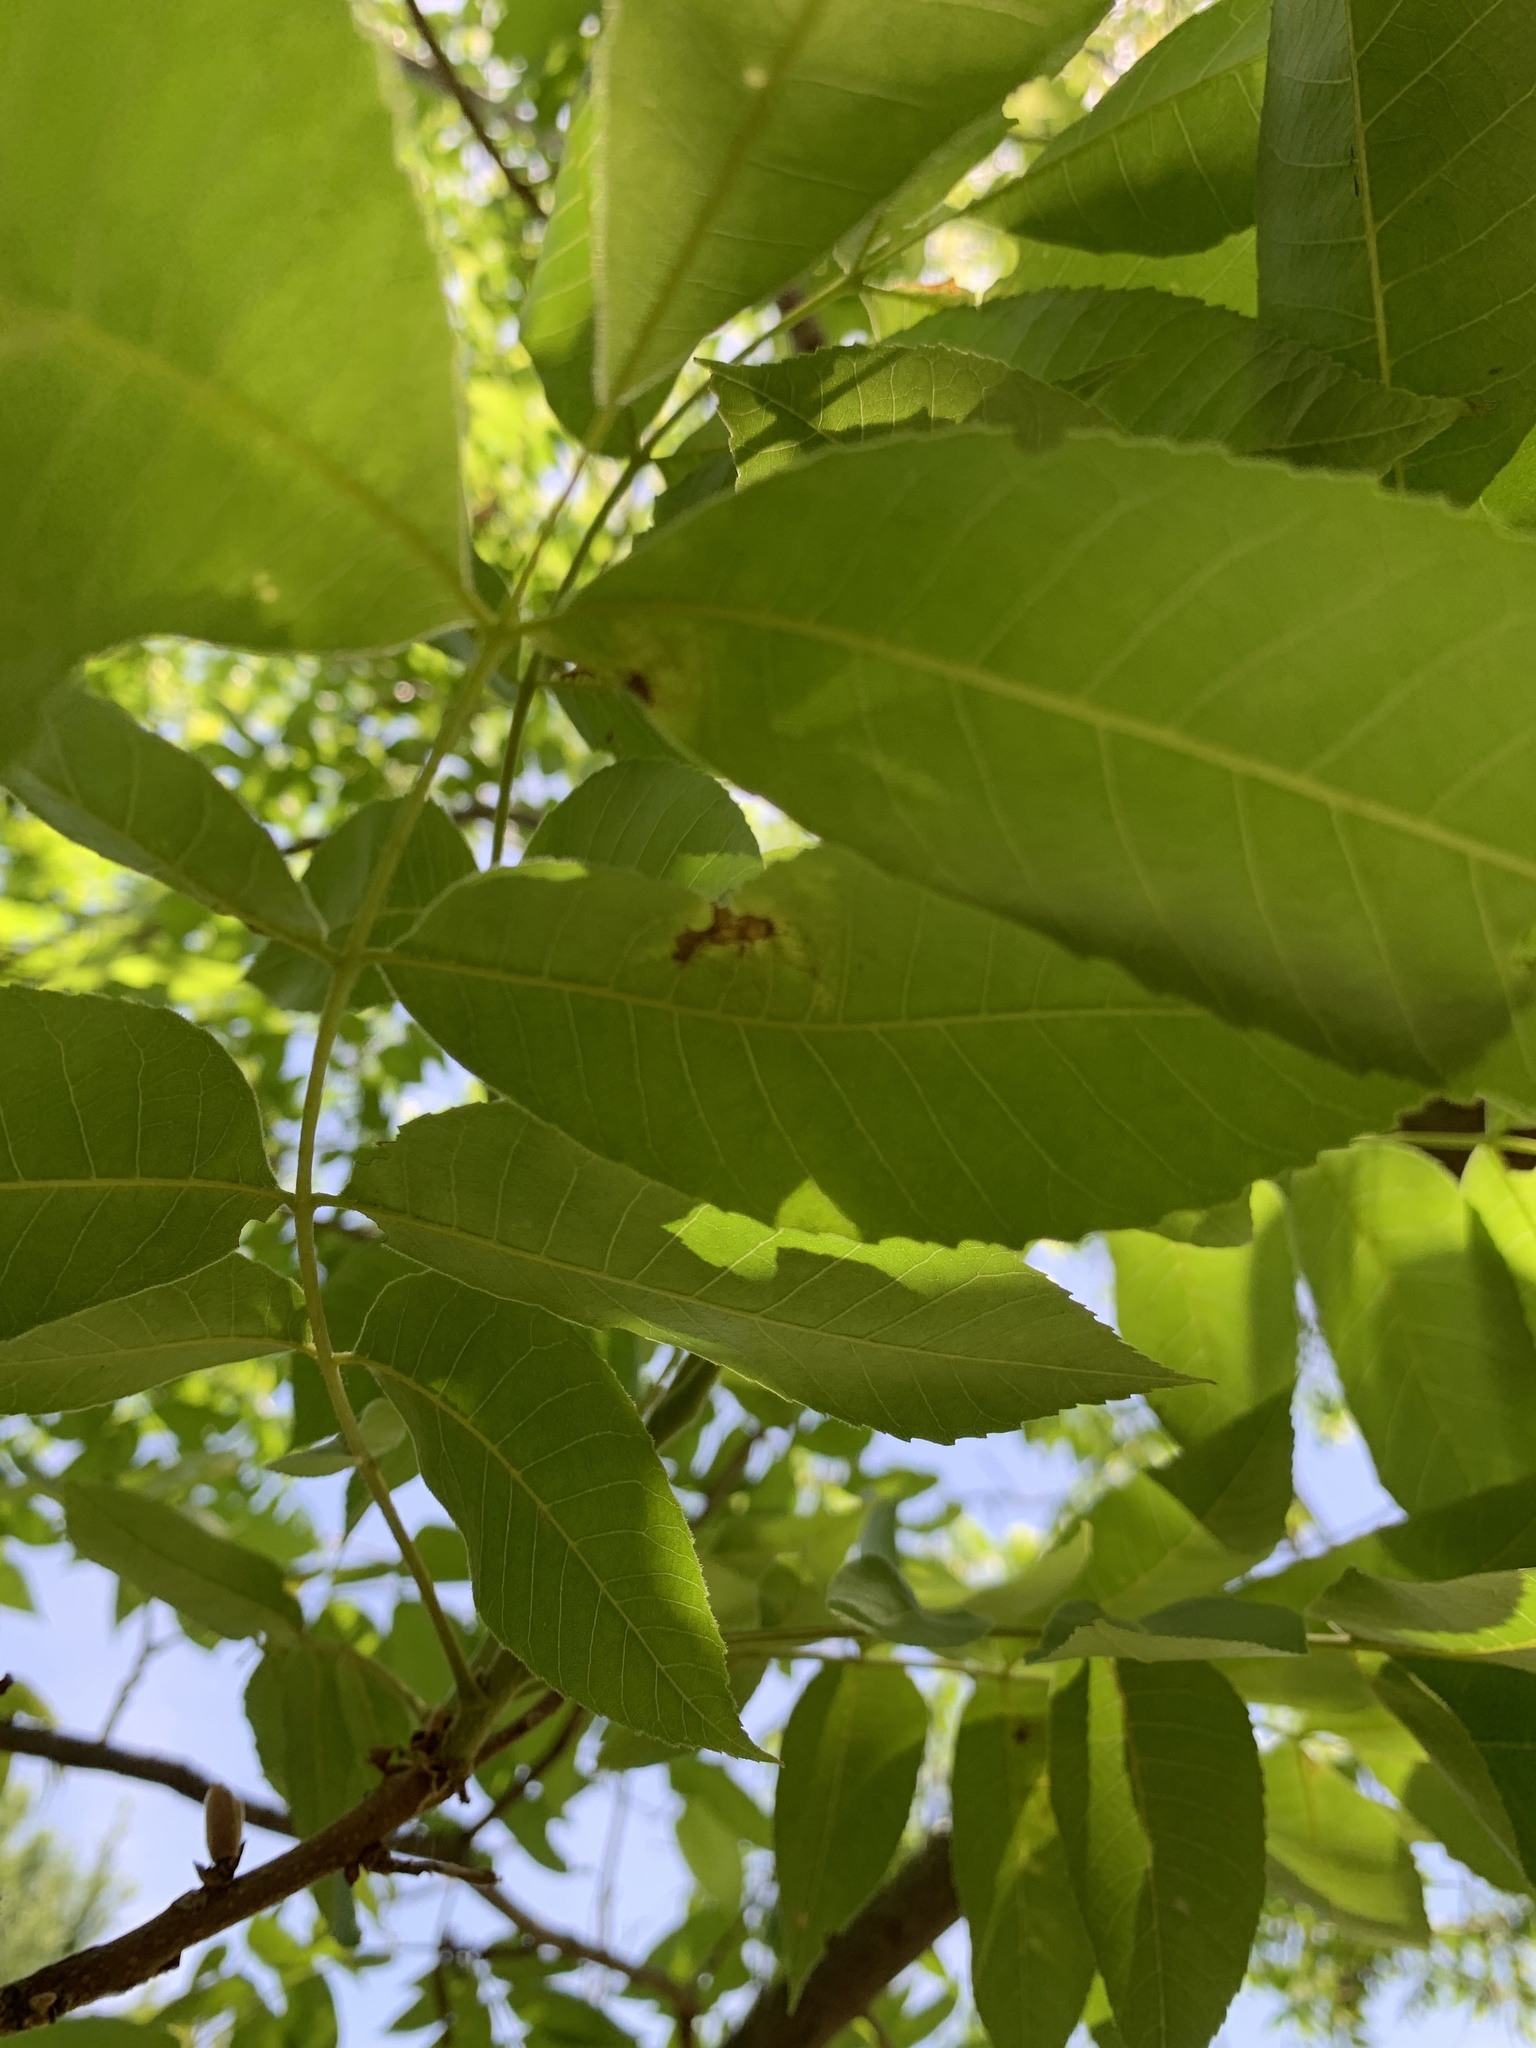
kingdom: Plantae
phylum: Tracheophyta
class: Magnoliopsida
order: Fagales
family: Juglandaceae
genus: Carya
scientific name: Carya illinoinensis
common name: Pecan
